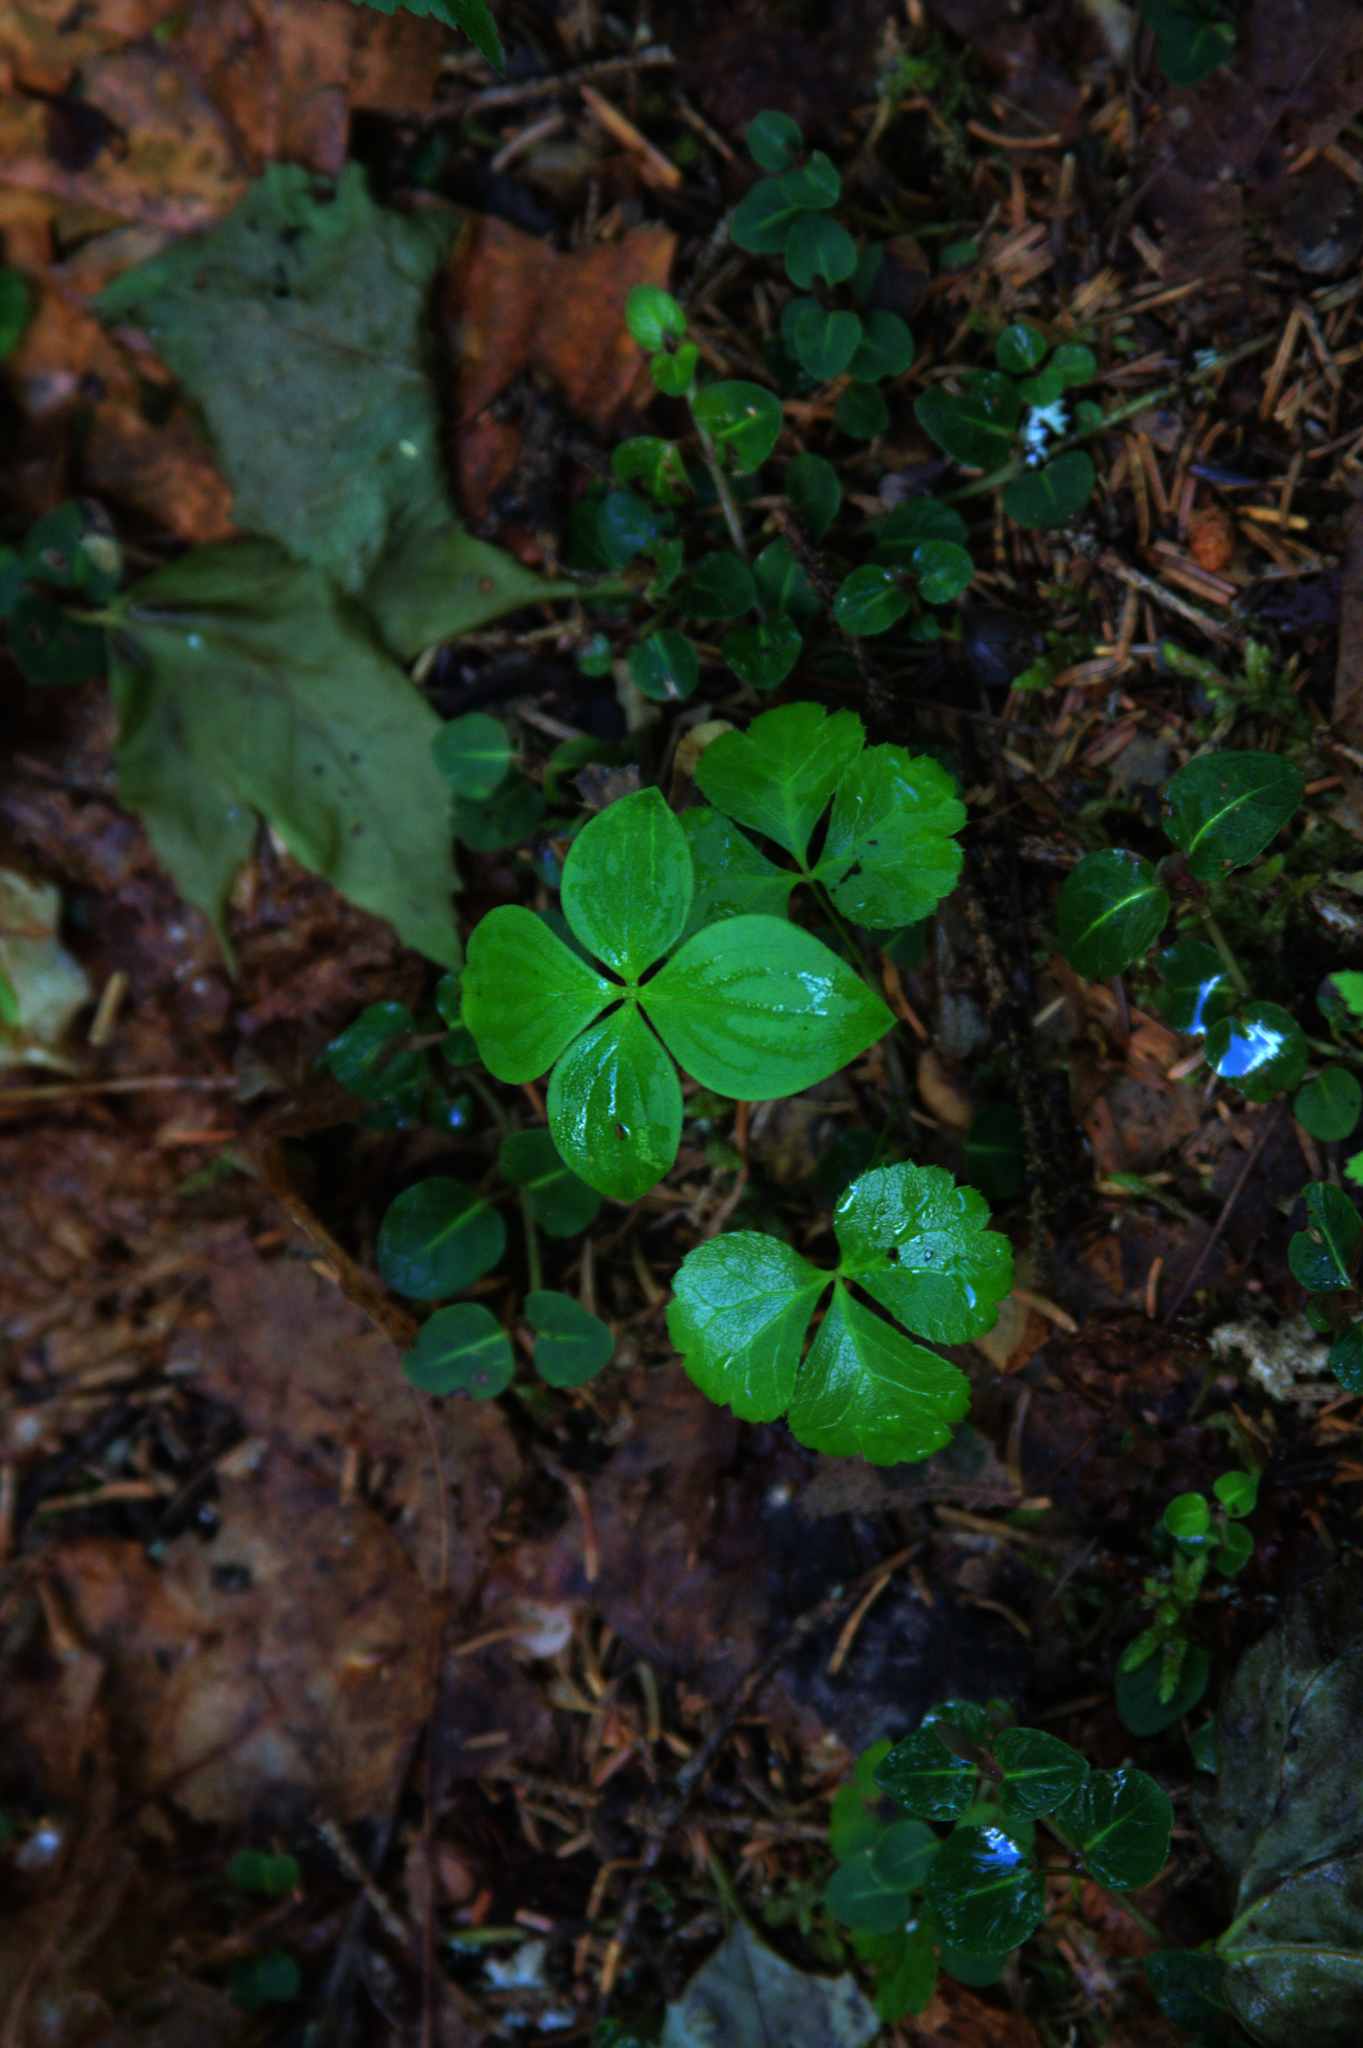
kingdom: Plantae
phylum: Tracheophyta
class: Magnoliopsida
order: Gentianales
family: Rubiaceae
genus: Mitchella
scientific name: Mitchella repens
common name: Partridge-berry
